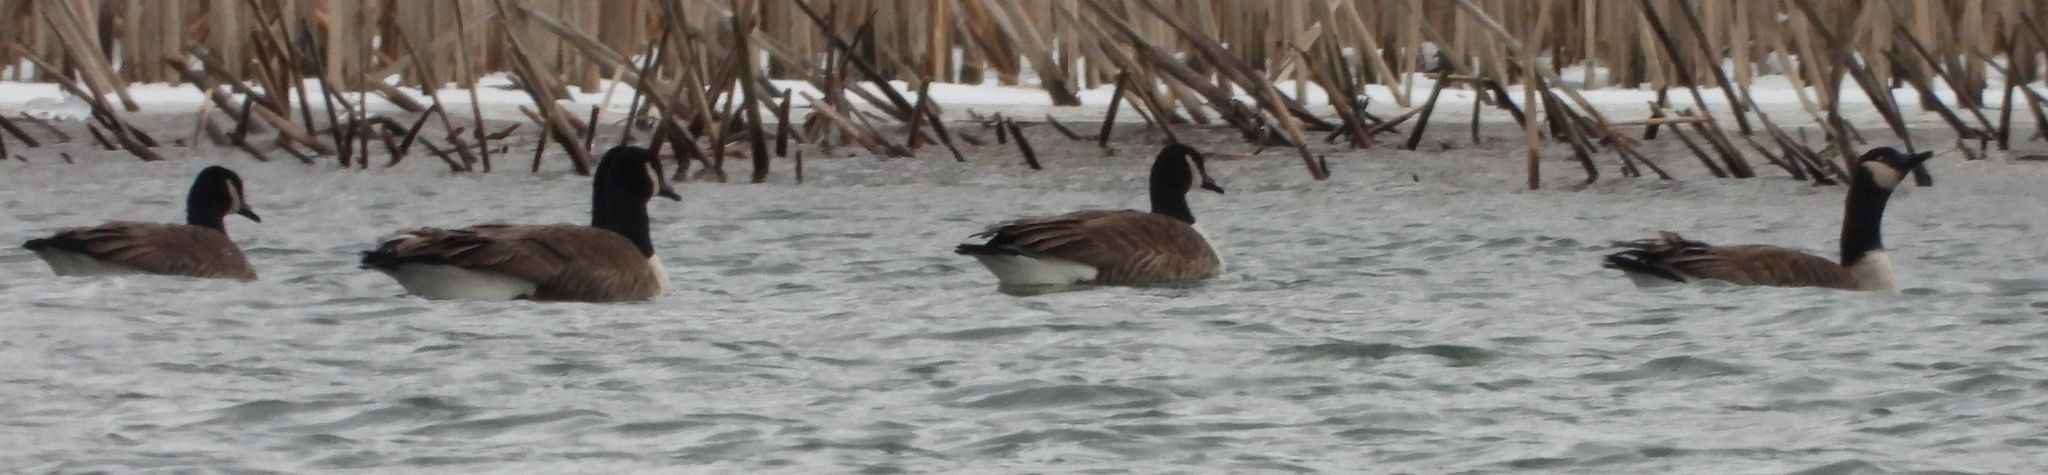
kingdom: Animalia
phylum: Chordata
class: Aves
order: Anseriformes
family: Anatidae
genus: Branta
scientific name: Branta canadensis
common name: Canada goose
